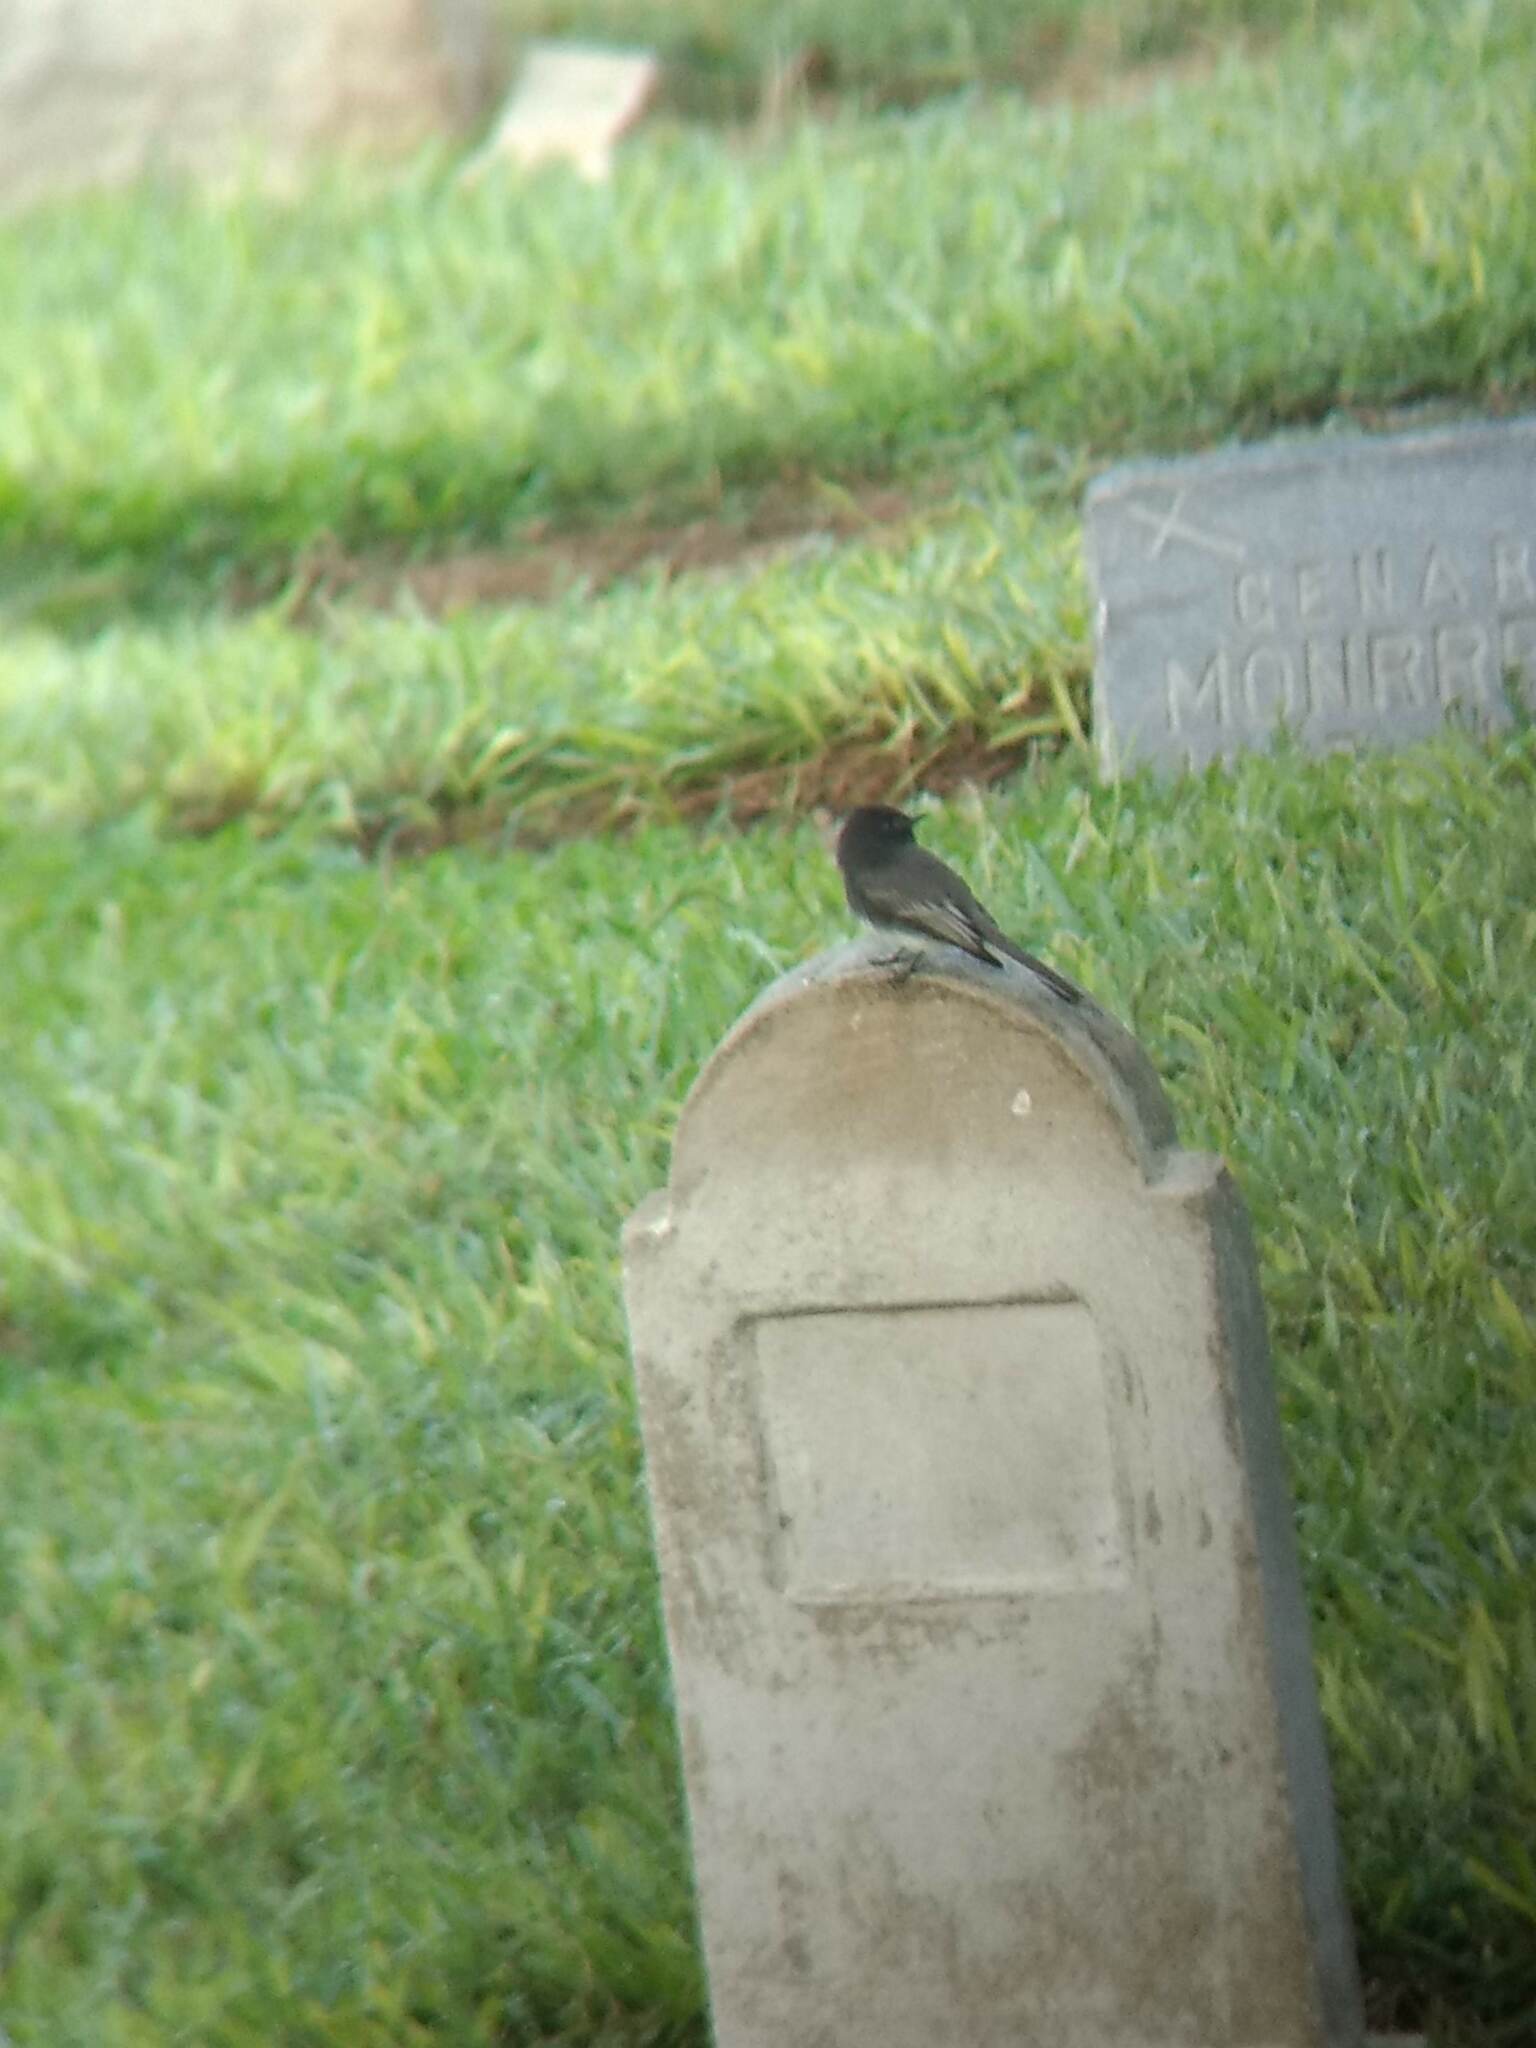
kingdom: Animalia
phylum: Chordata
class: Aves
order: Passeriformes
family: Tyrannidae
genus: Sayornis
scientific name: Sayornis nigricans
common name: Black phoebe
